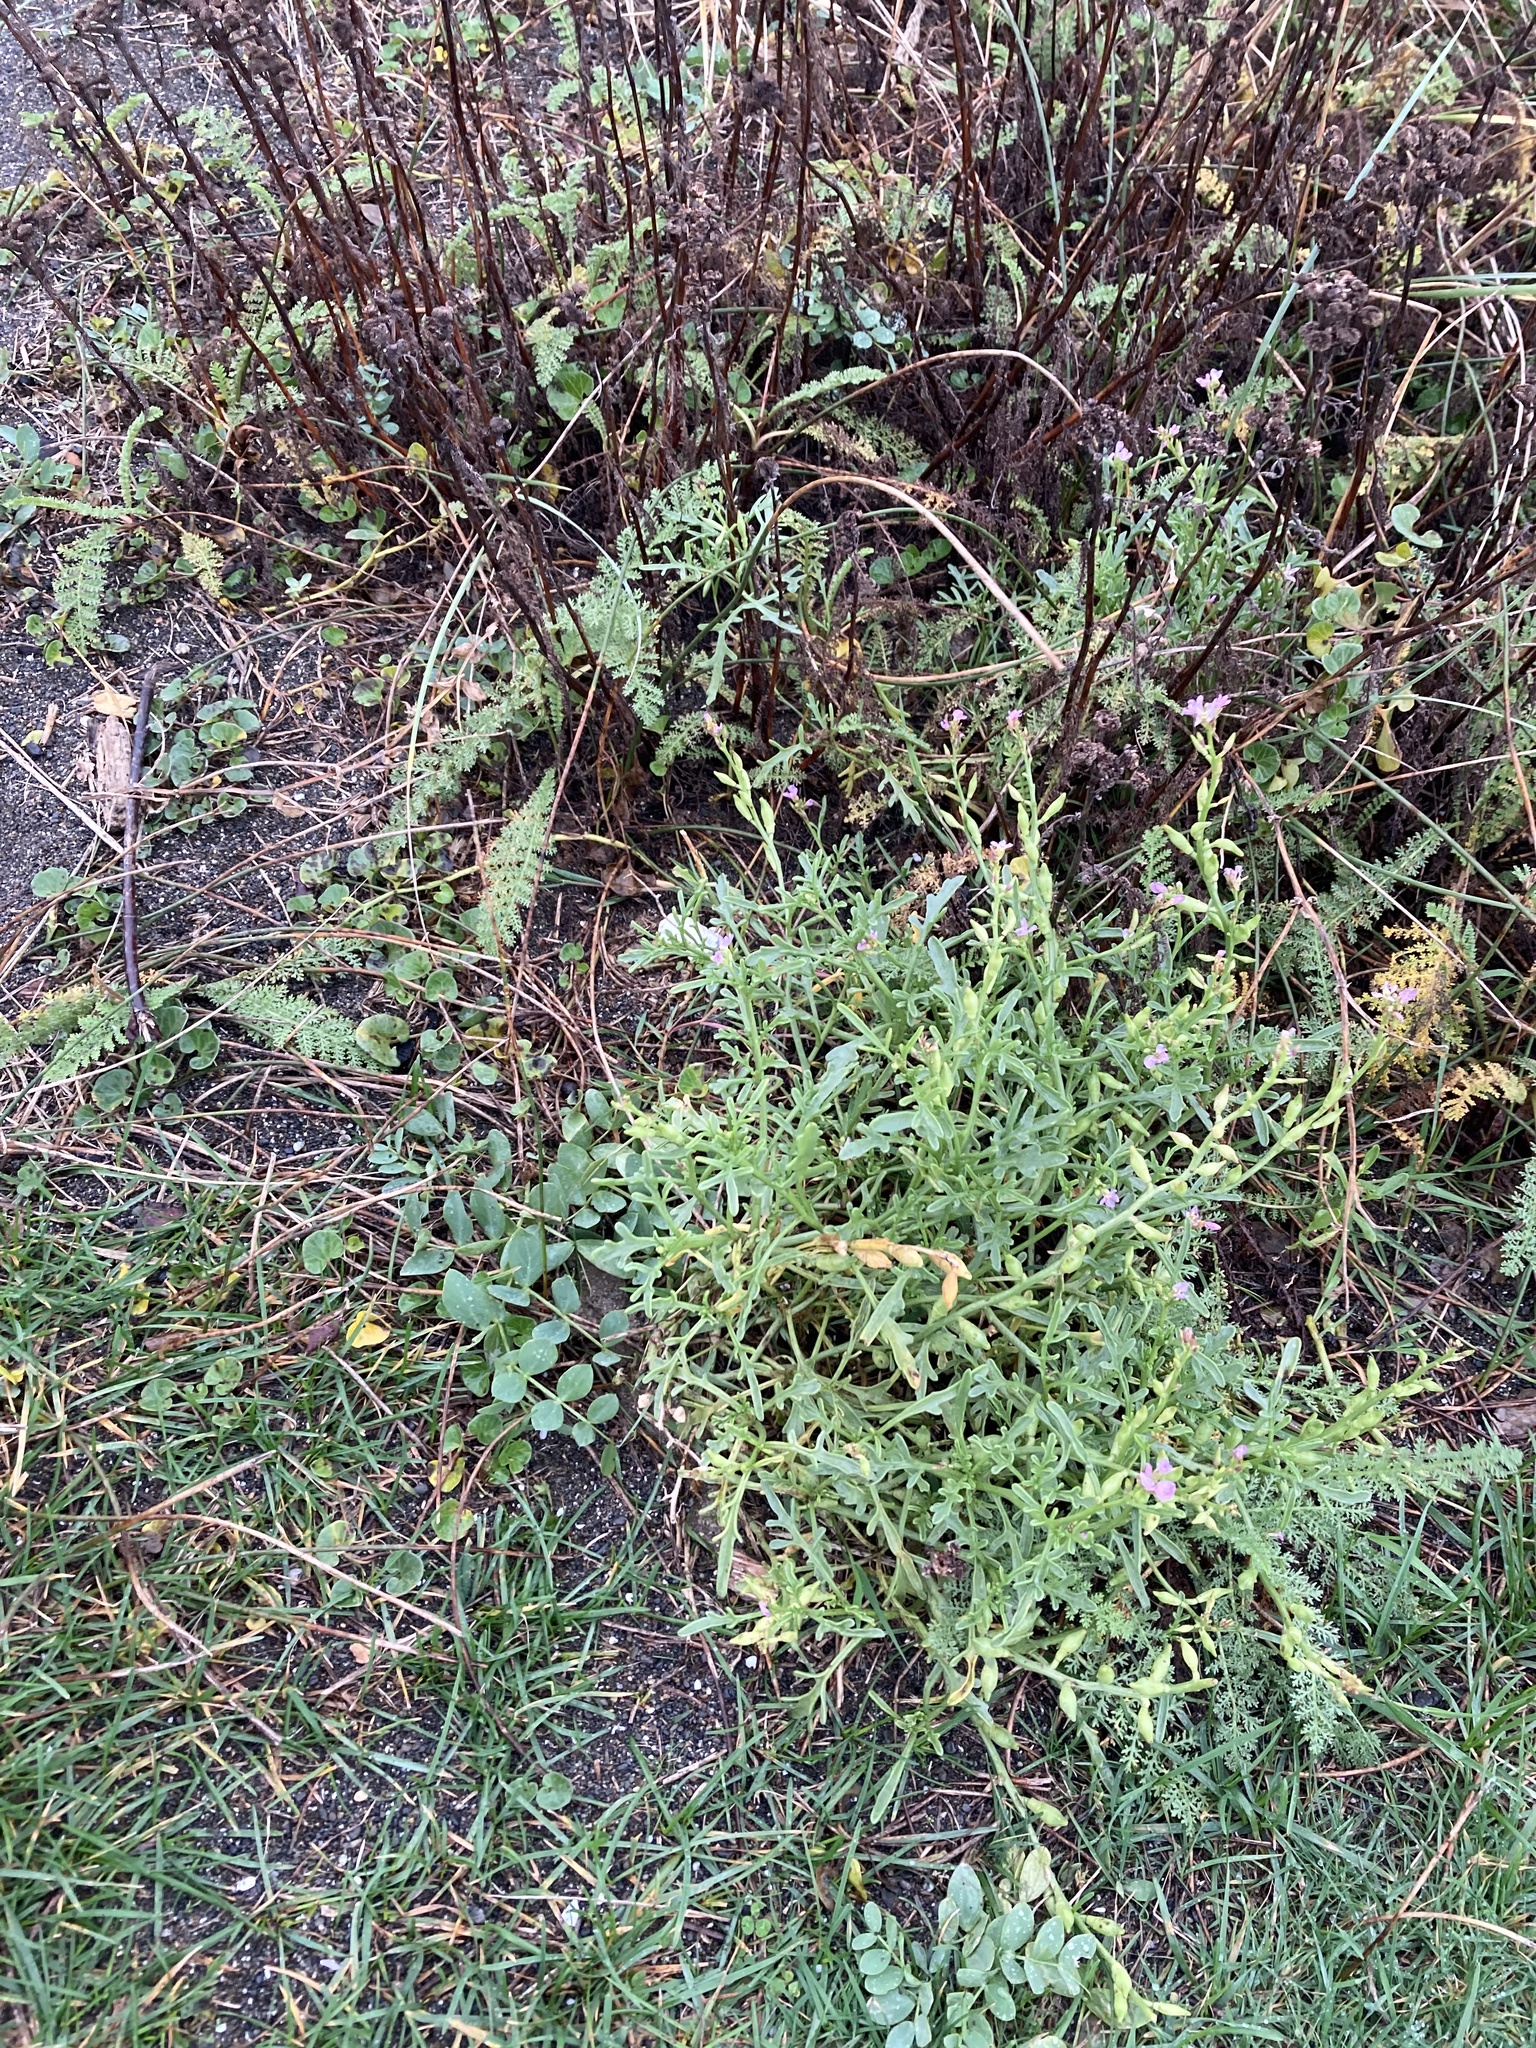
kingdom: Plantae
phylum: Tracheophyta
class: Magnoliopsida
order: Brassicales
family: Brassicaceae
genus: Cakile
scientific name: Cakile maritima
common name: Sea rocket
